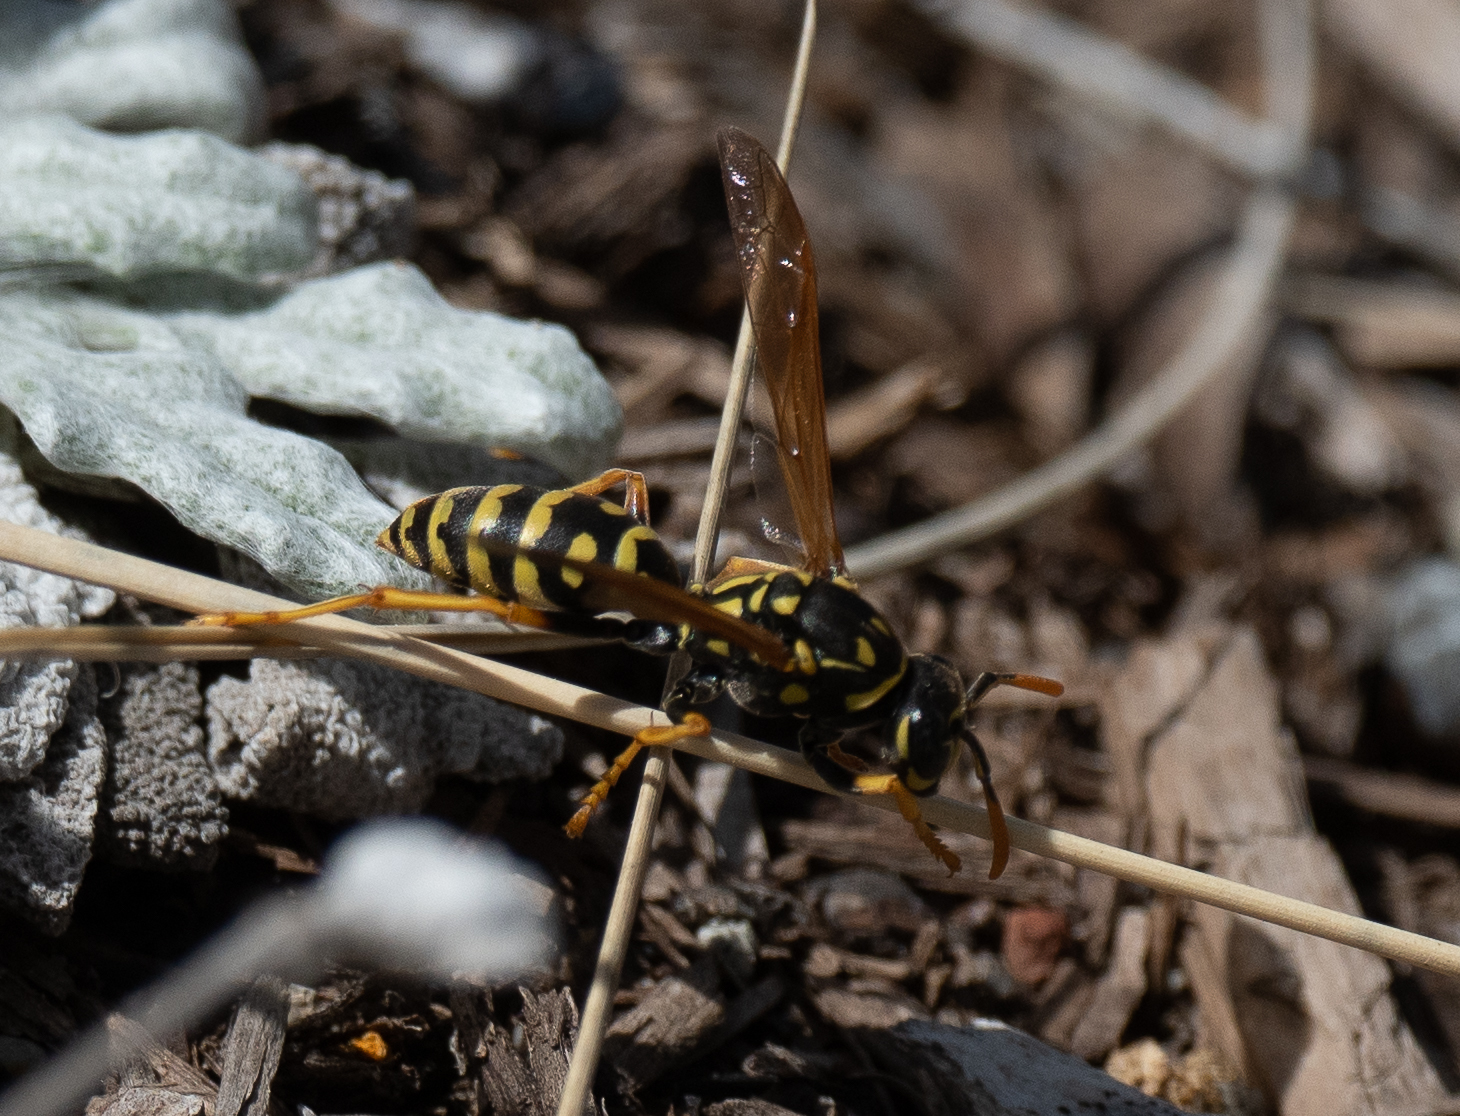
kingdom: Animalia
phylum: Arthropoda
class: Insecta
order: Hymenoptera
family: Eumenidae
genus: Polistes
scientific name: Polistes dominula
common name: Paper wasp
